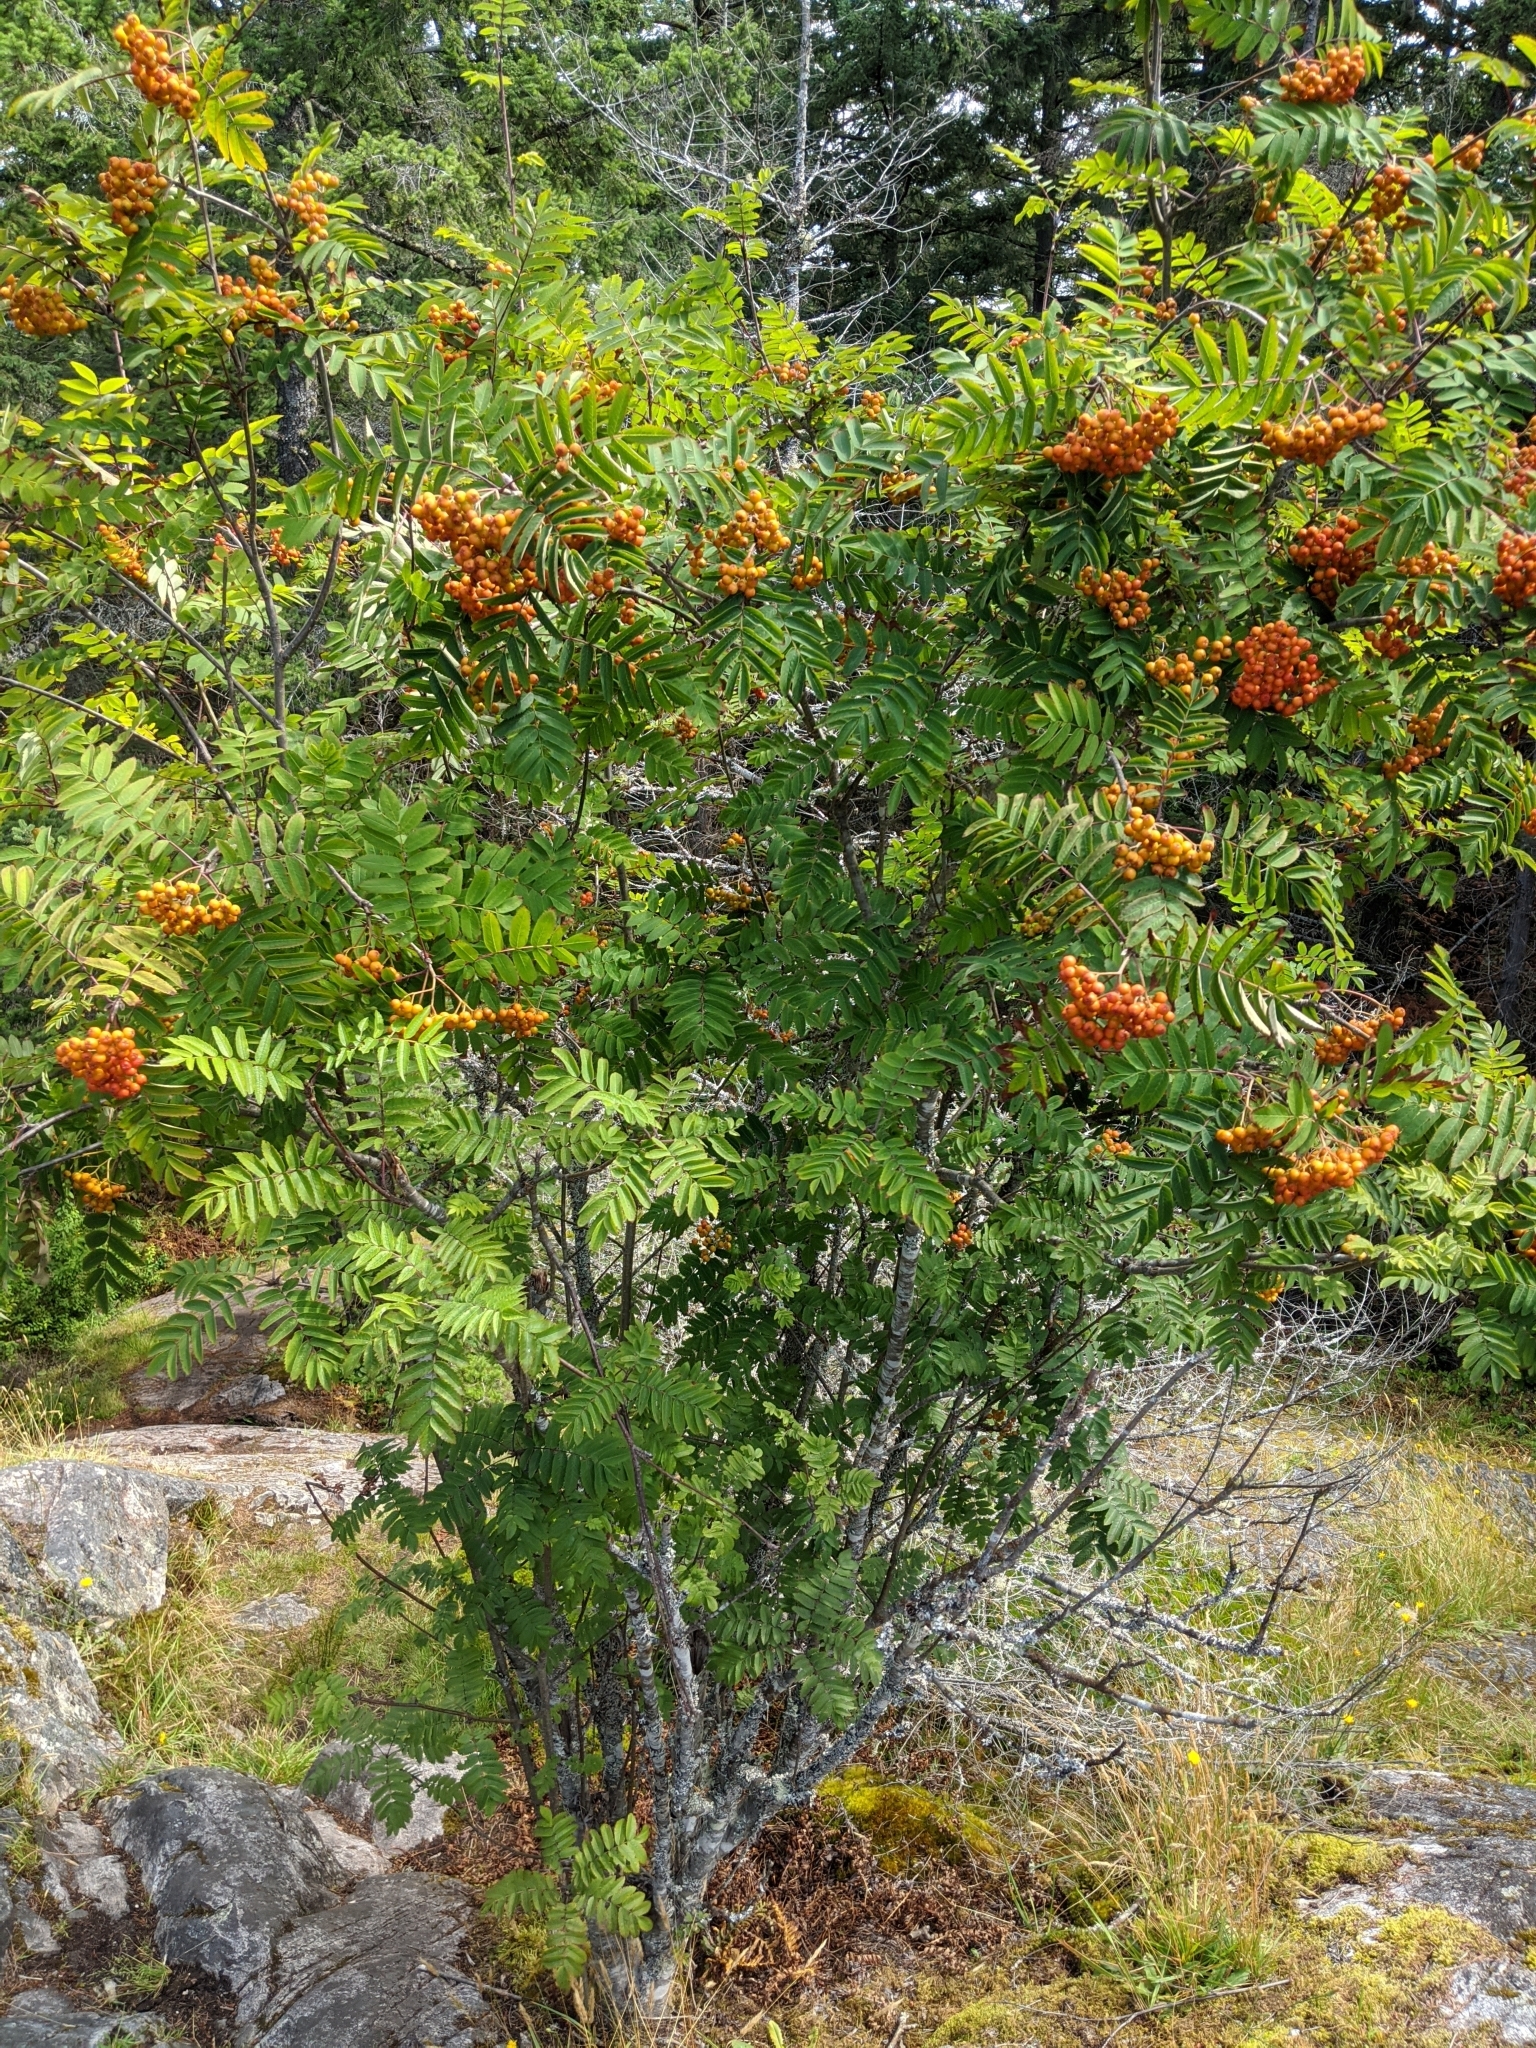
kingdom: Plantae
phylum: Tracheophyta
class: Magnoliopsida
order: Rosales
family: Rosaceae
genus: Sorbus
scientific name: Sorbus aucuparia
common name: Rowan
